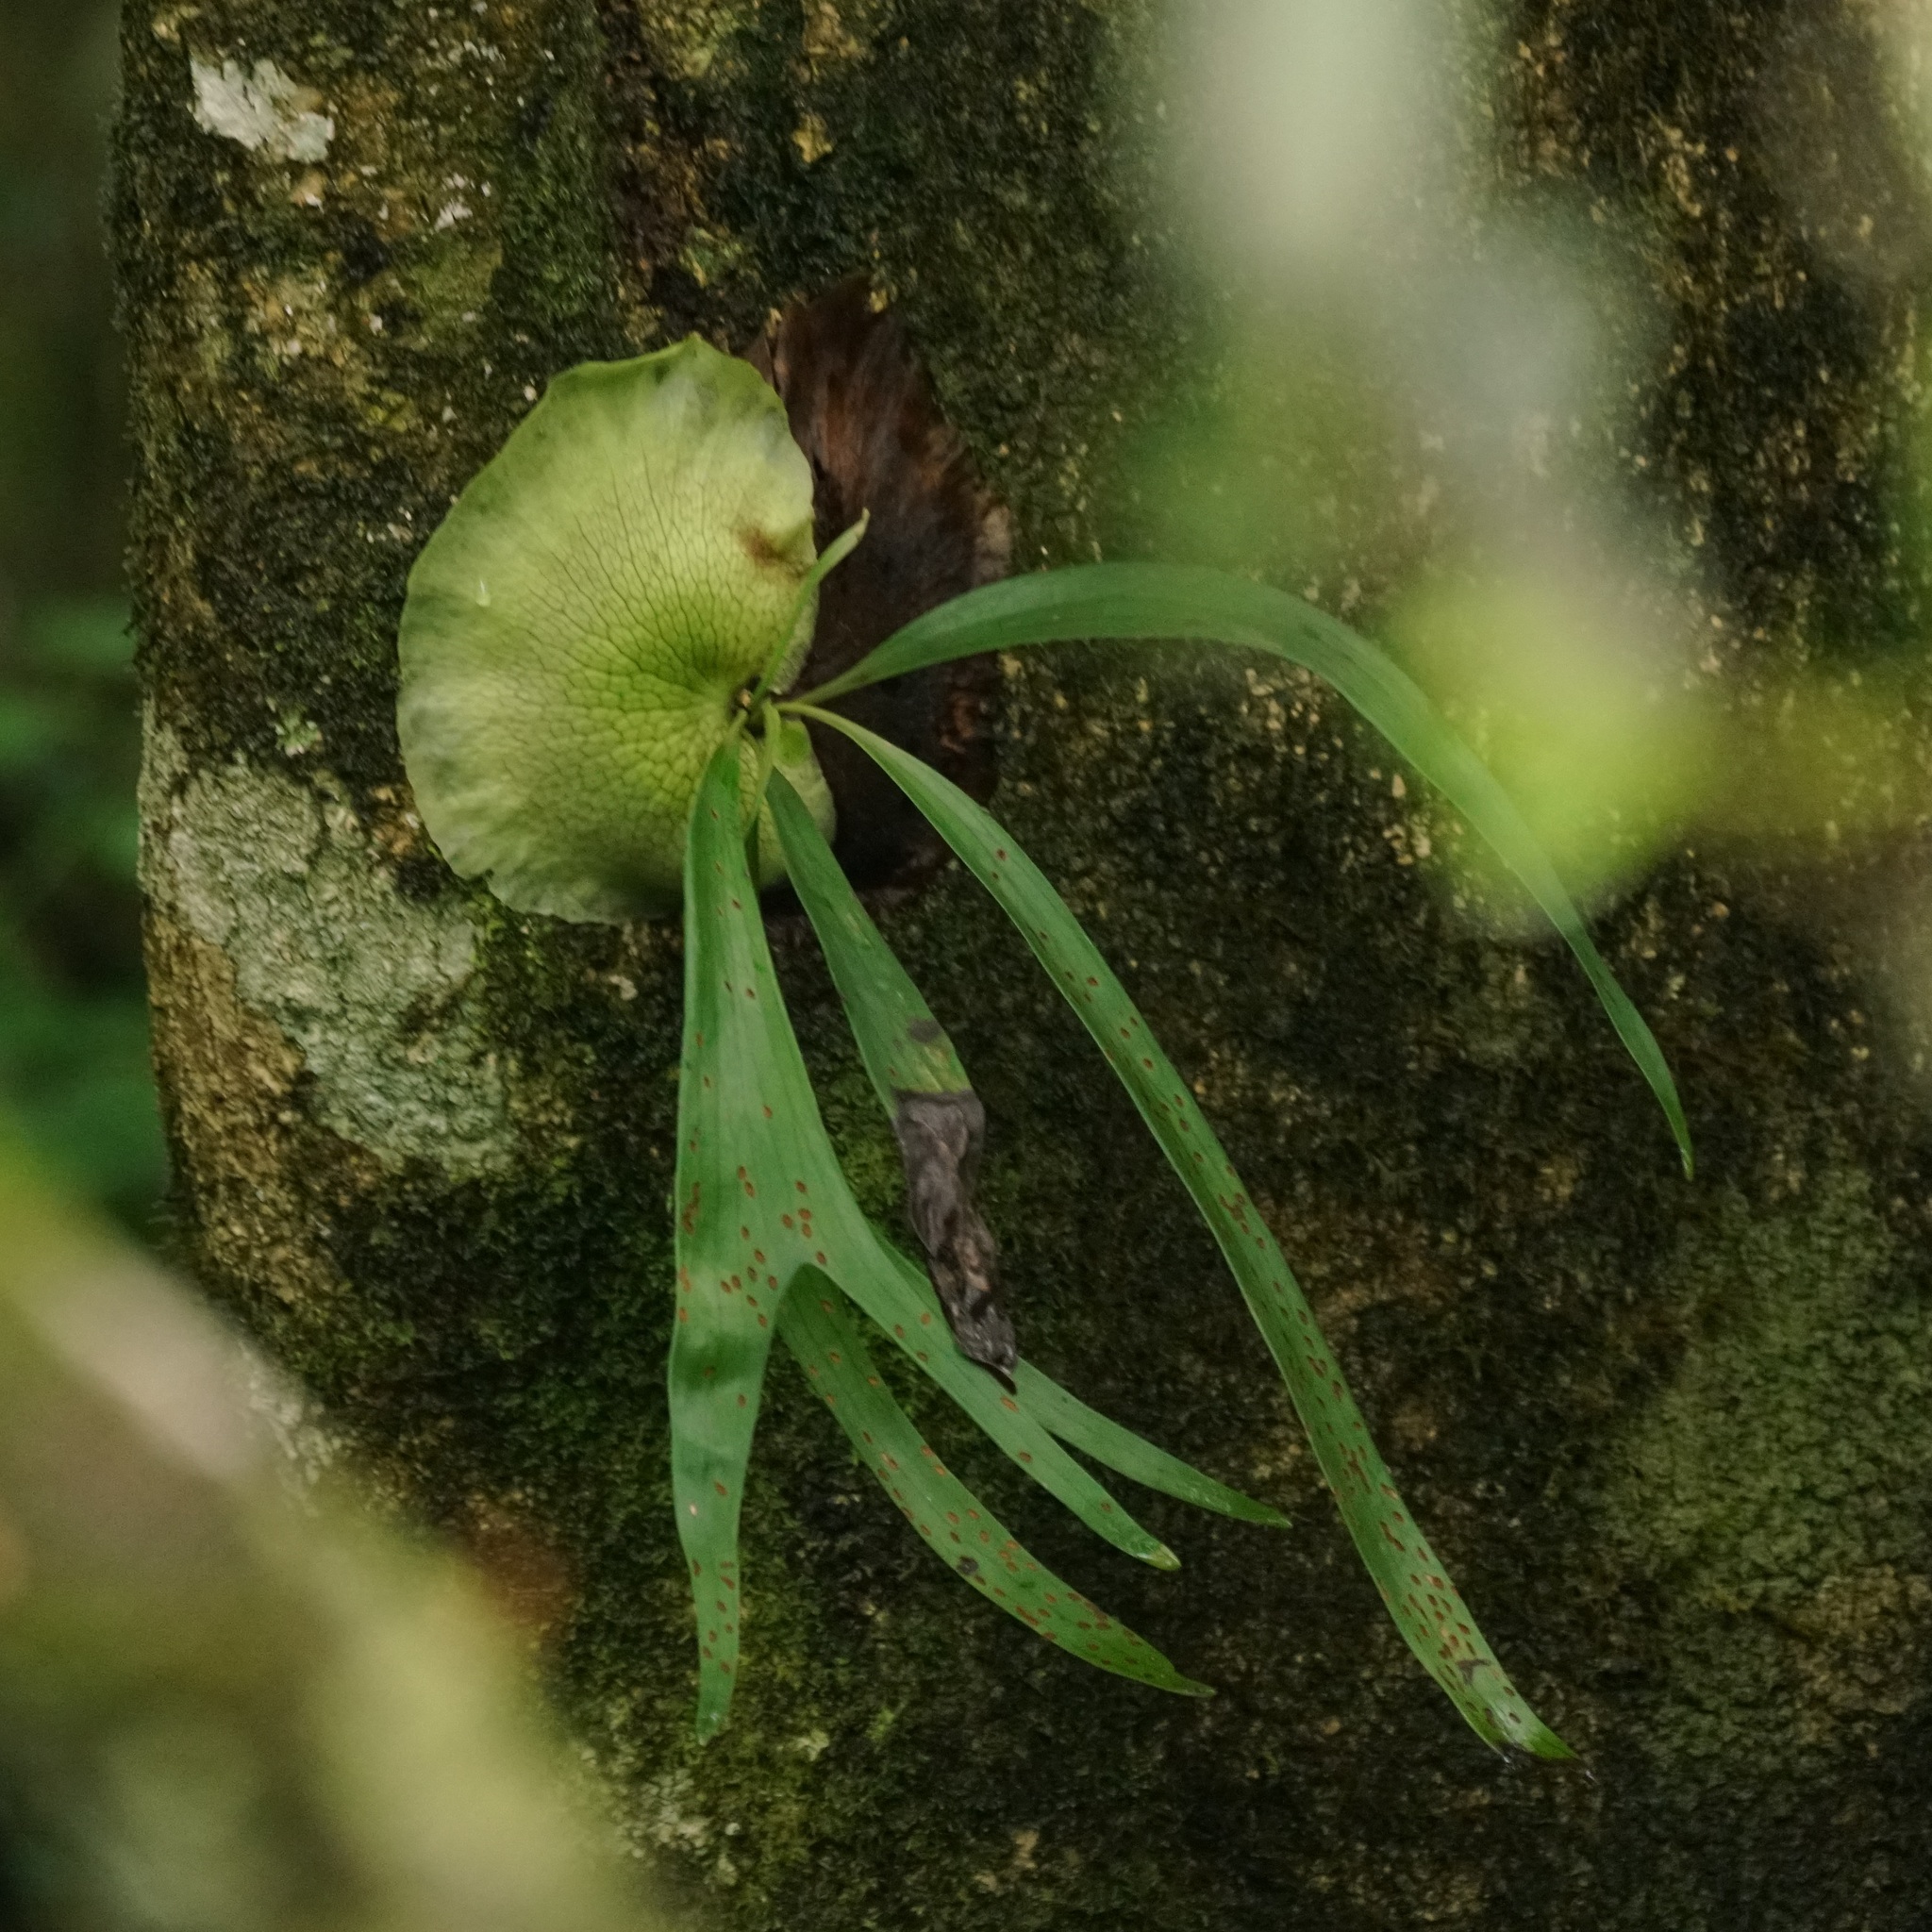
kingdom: Plantae
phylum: Tracheophyta
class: Polypodiopsida
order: Polypodiales
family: Polypodiaceae
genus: Platycerium
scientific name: Platycerium bifurcatum
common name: Elkhorn fern
